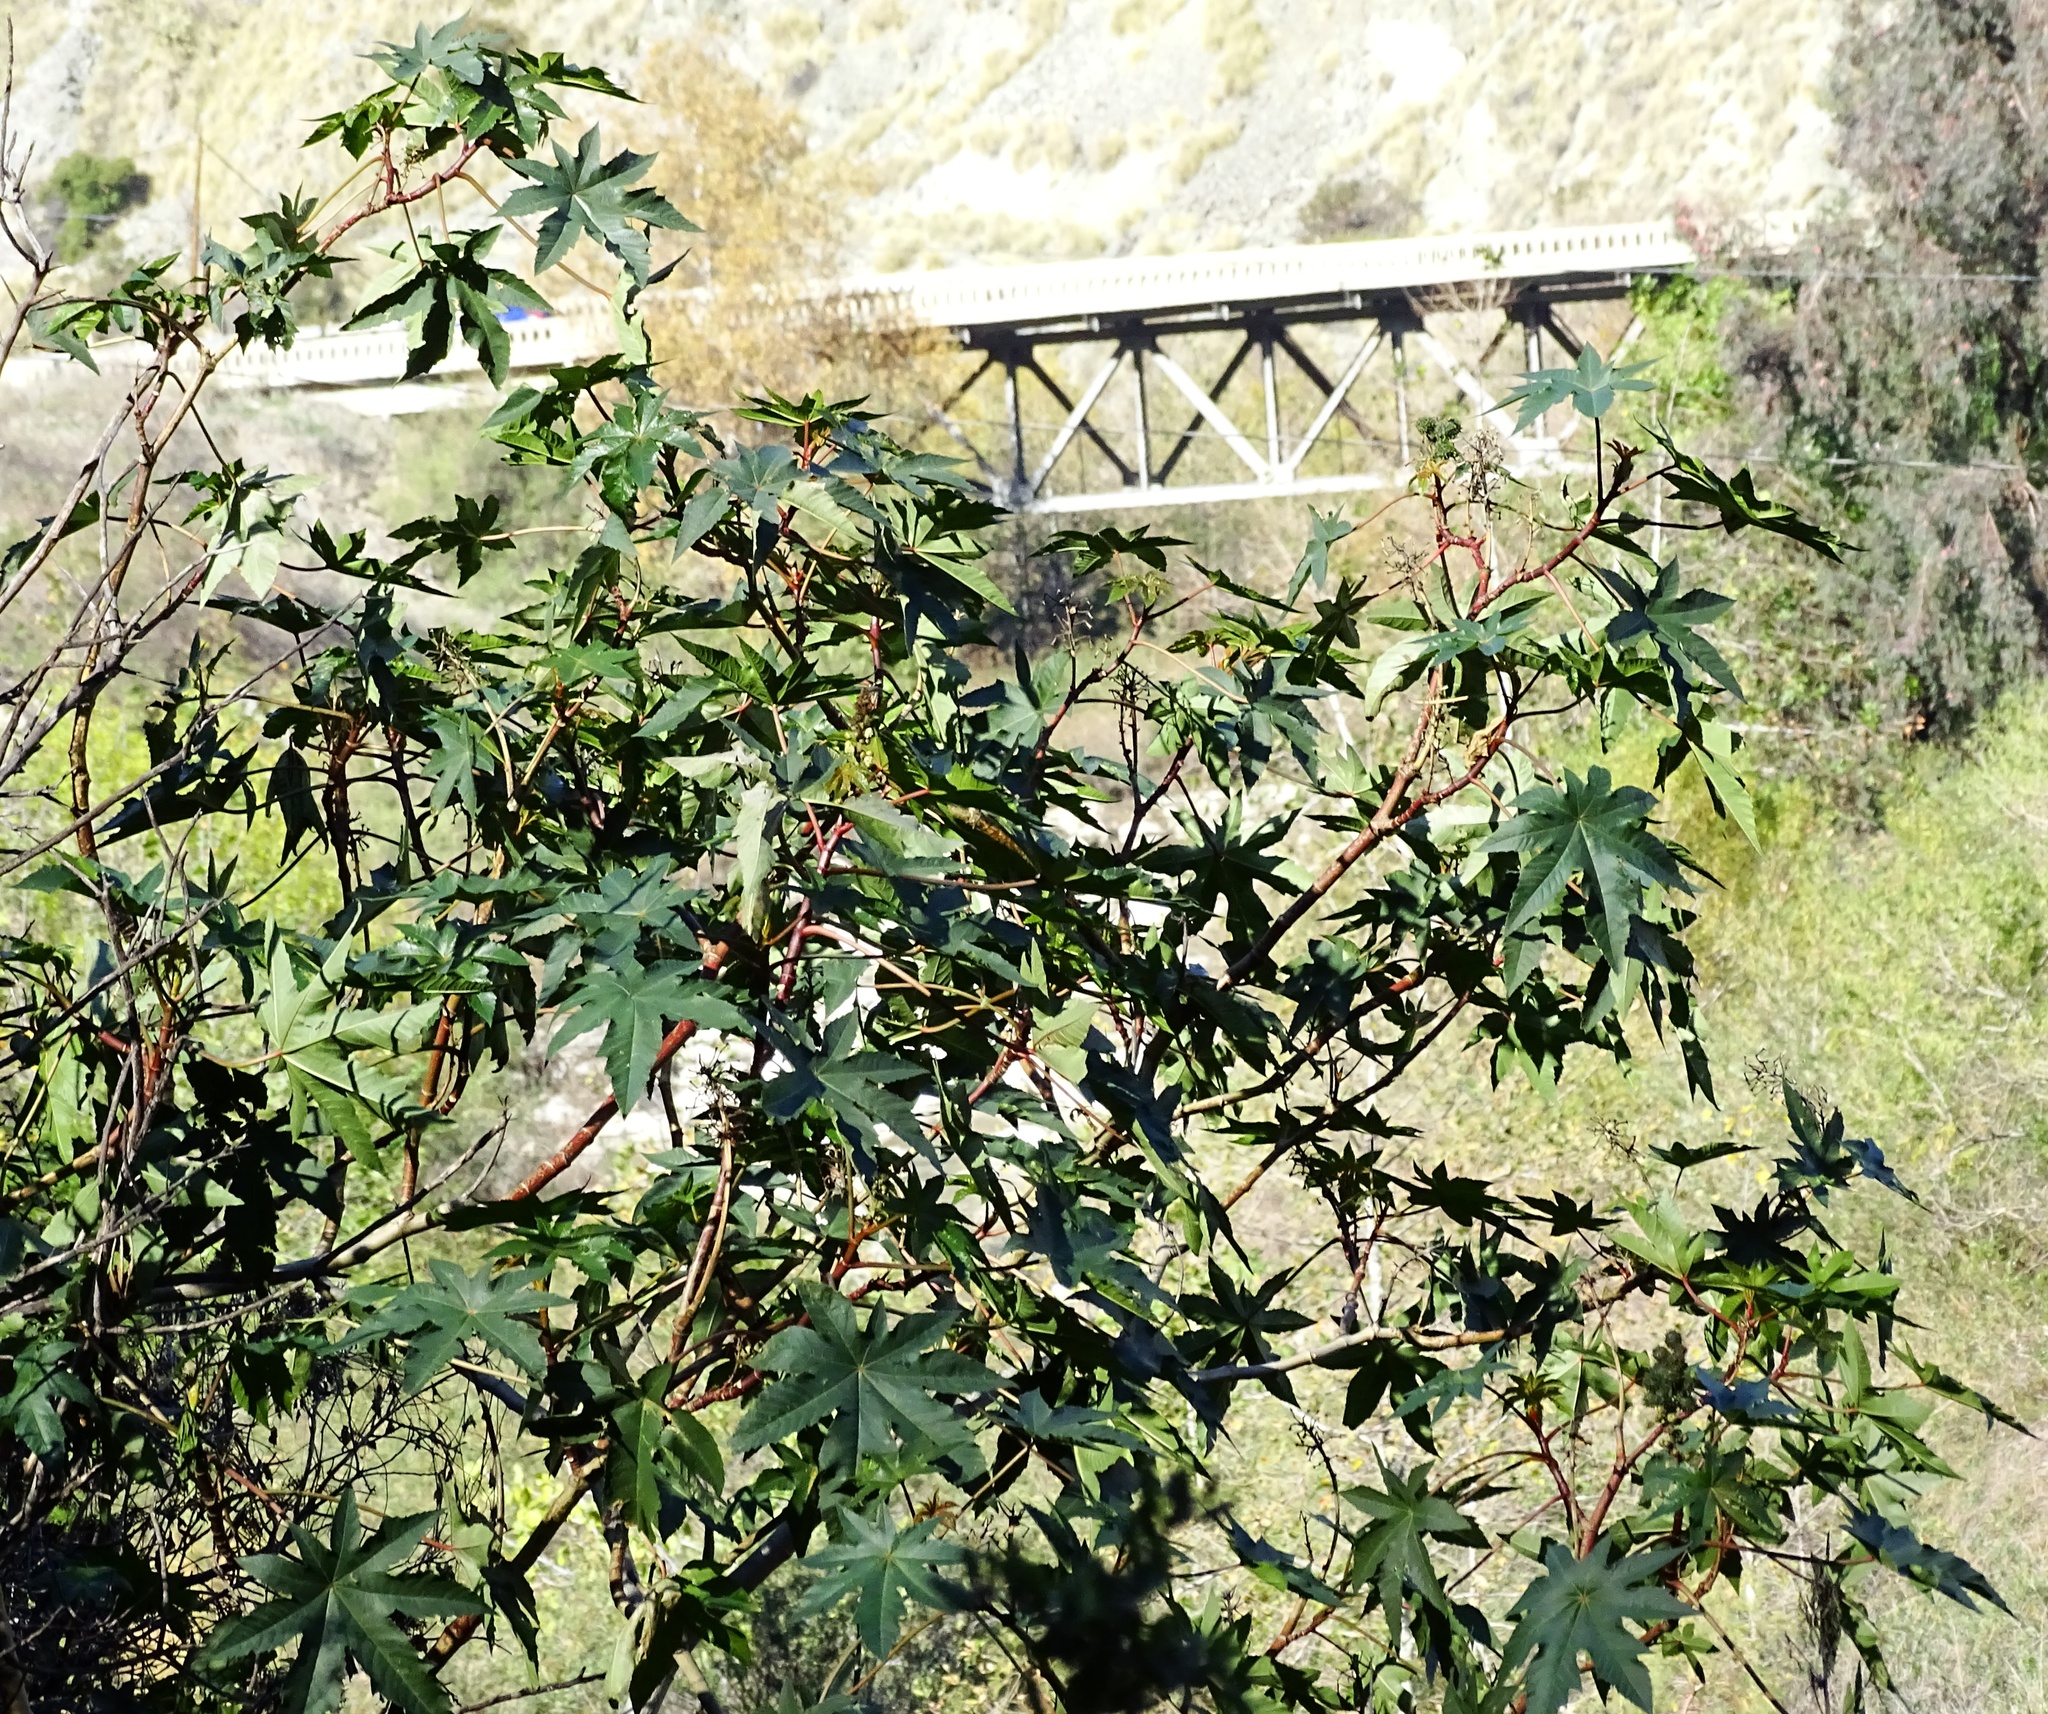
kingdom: Plantae
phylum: Tracheophyta
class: Magnoliopsida
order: Malpighiales
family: Euphorbiaceae
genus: Ricinus
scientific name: Ricinus communis
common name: Castor-oil-plant
